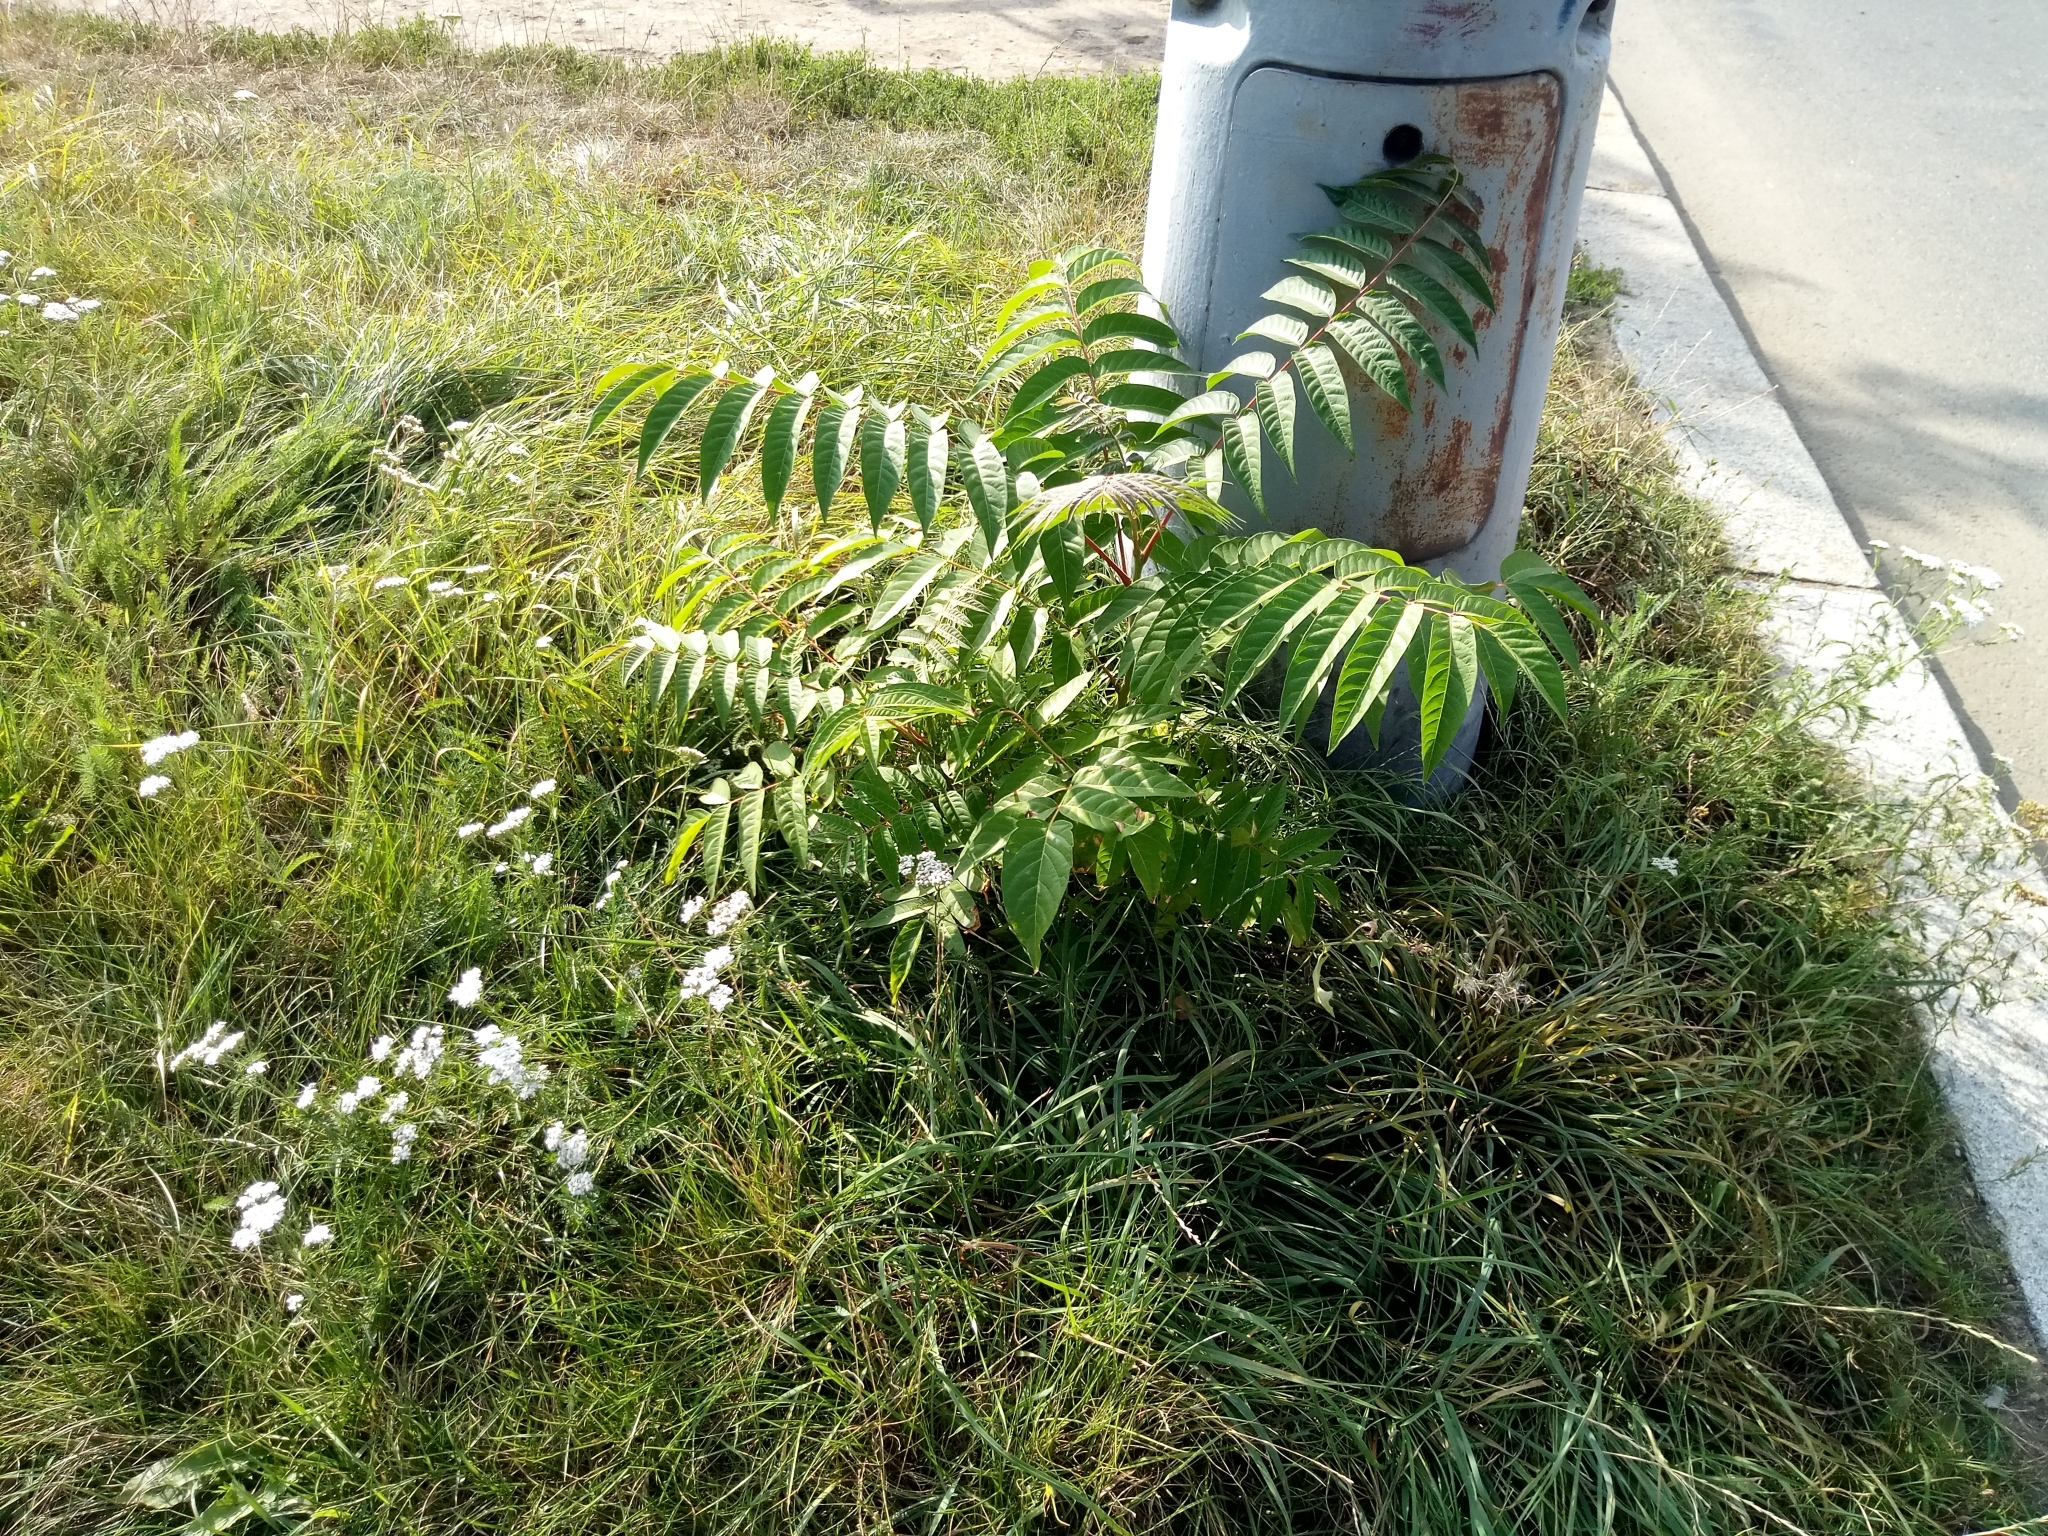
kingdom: Plantae
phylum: Tracheophyta
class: Magnoliopsida
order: Sapindales
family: Simaroubaceae
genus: Ailanthus
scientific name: Ailanthus altissima
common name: Tree-of-heaven
